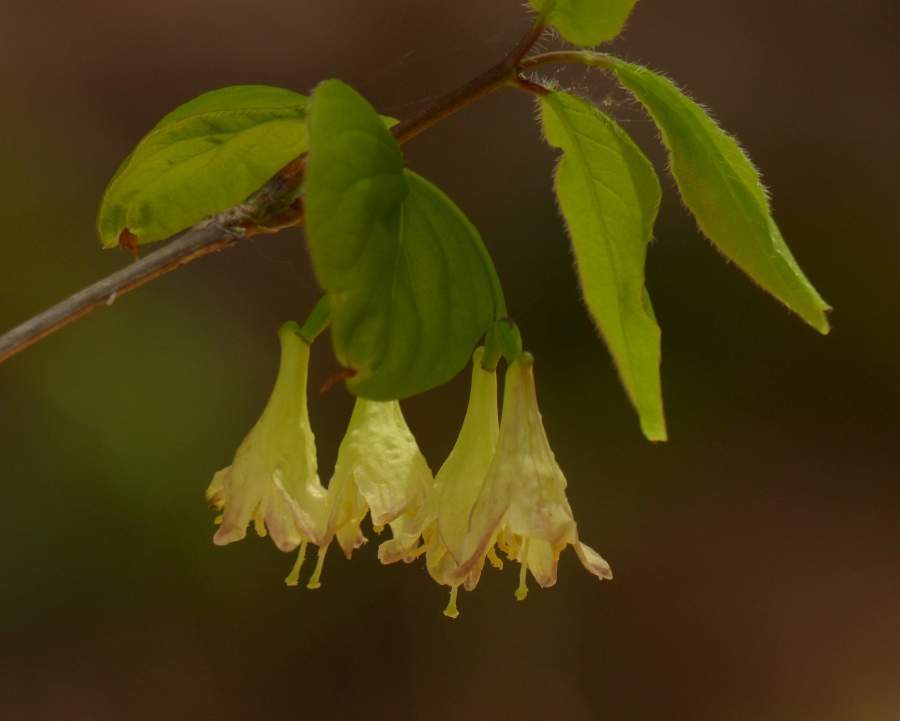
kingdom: Plantae
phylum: Tracheophyta
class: Magnoliopsida
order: Dipsacales
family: Caprifoliaceae
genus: Lonicera
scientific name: Lonicera canadensis
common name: American fly-honeysuckle
